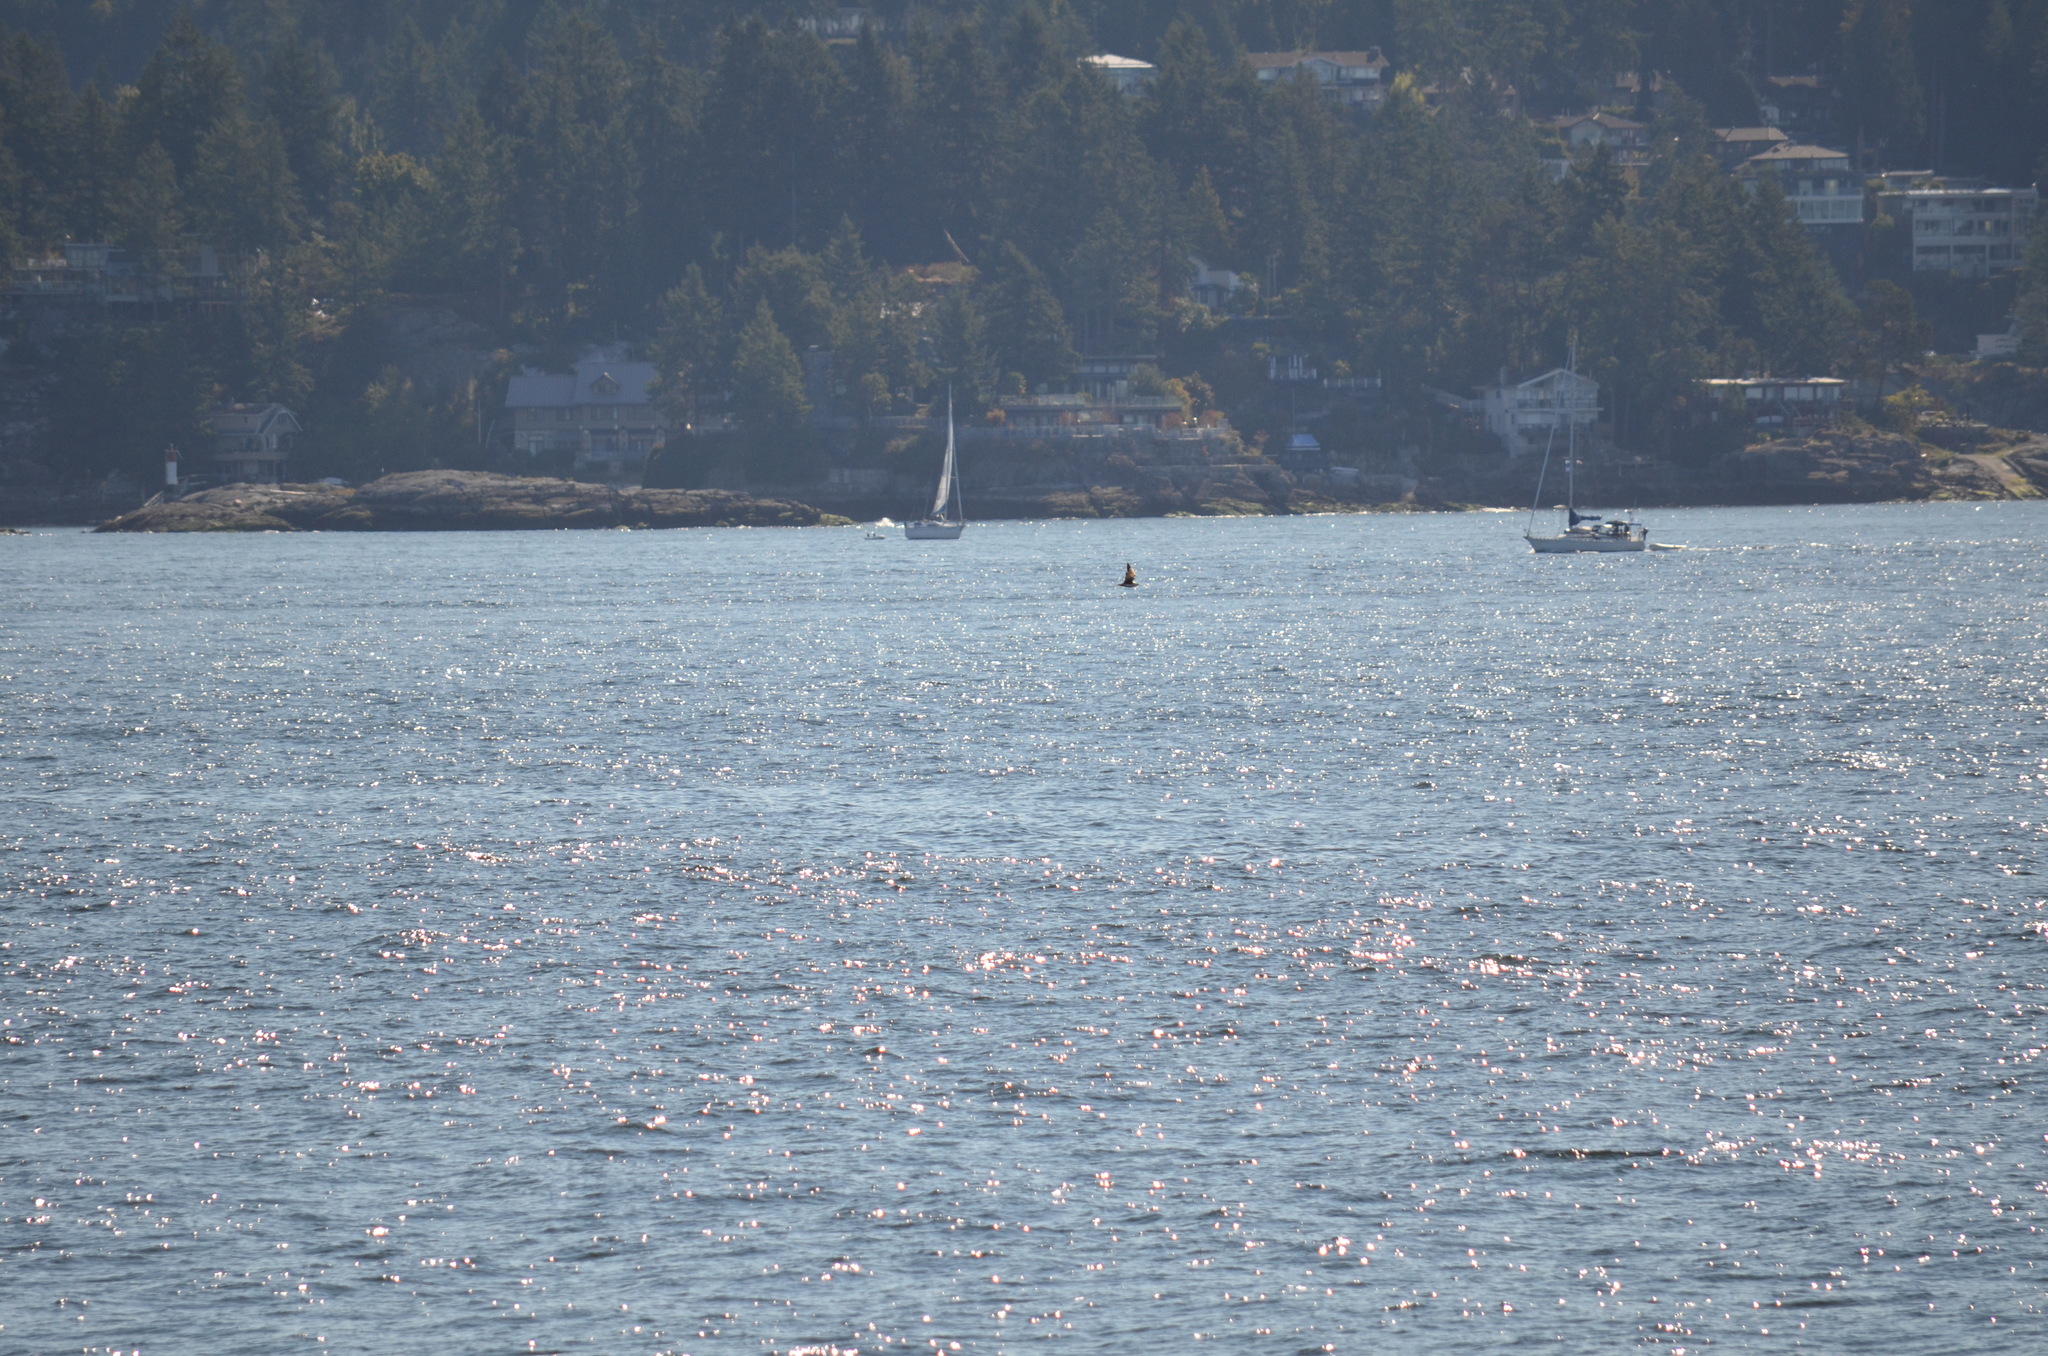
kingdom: Animalia
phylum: Chordata
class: Aves
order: Charadriiformes
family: Stercorariidae
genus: Stercorarius
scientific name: Stercorarius parasiticus
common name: Parasitic jaeger
